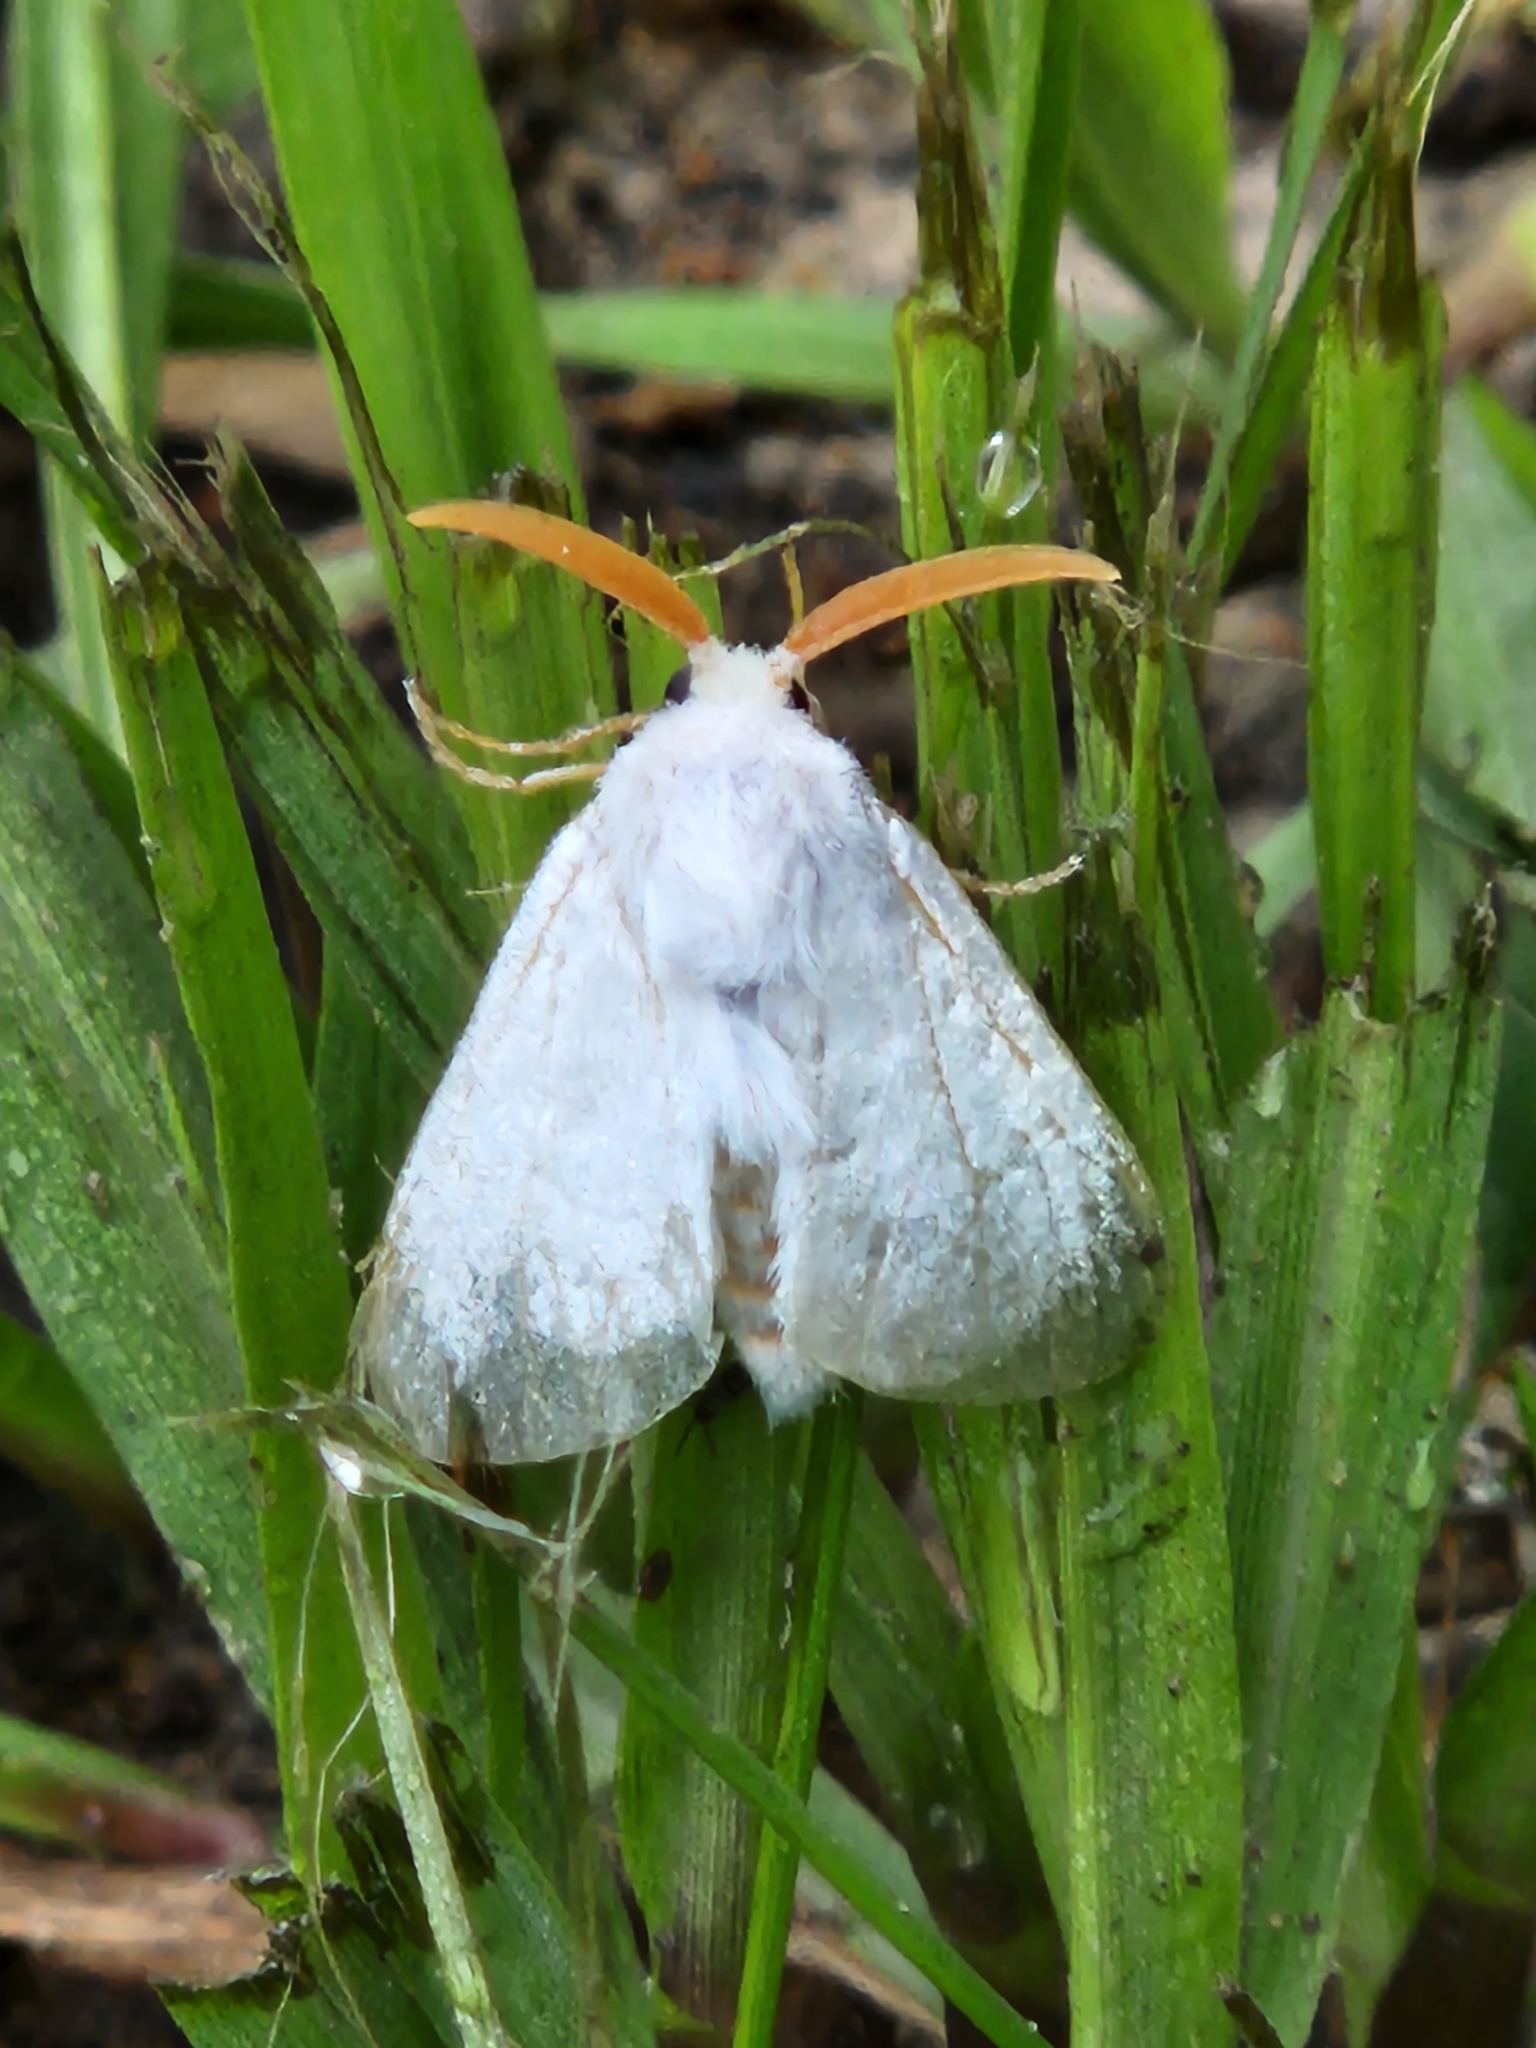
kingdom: Animalia
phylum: Arthropoda
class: Insecta
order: Lepidoptera
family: Megalopygidae
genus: Norape
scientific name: Norape cretata
